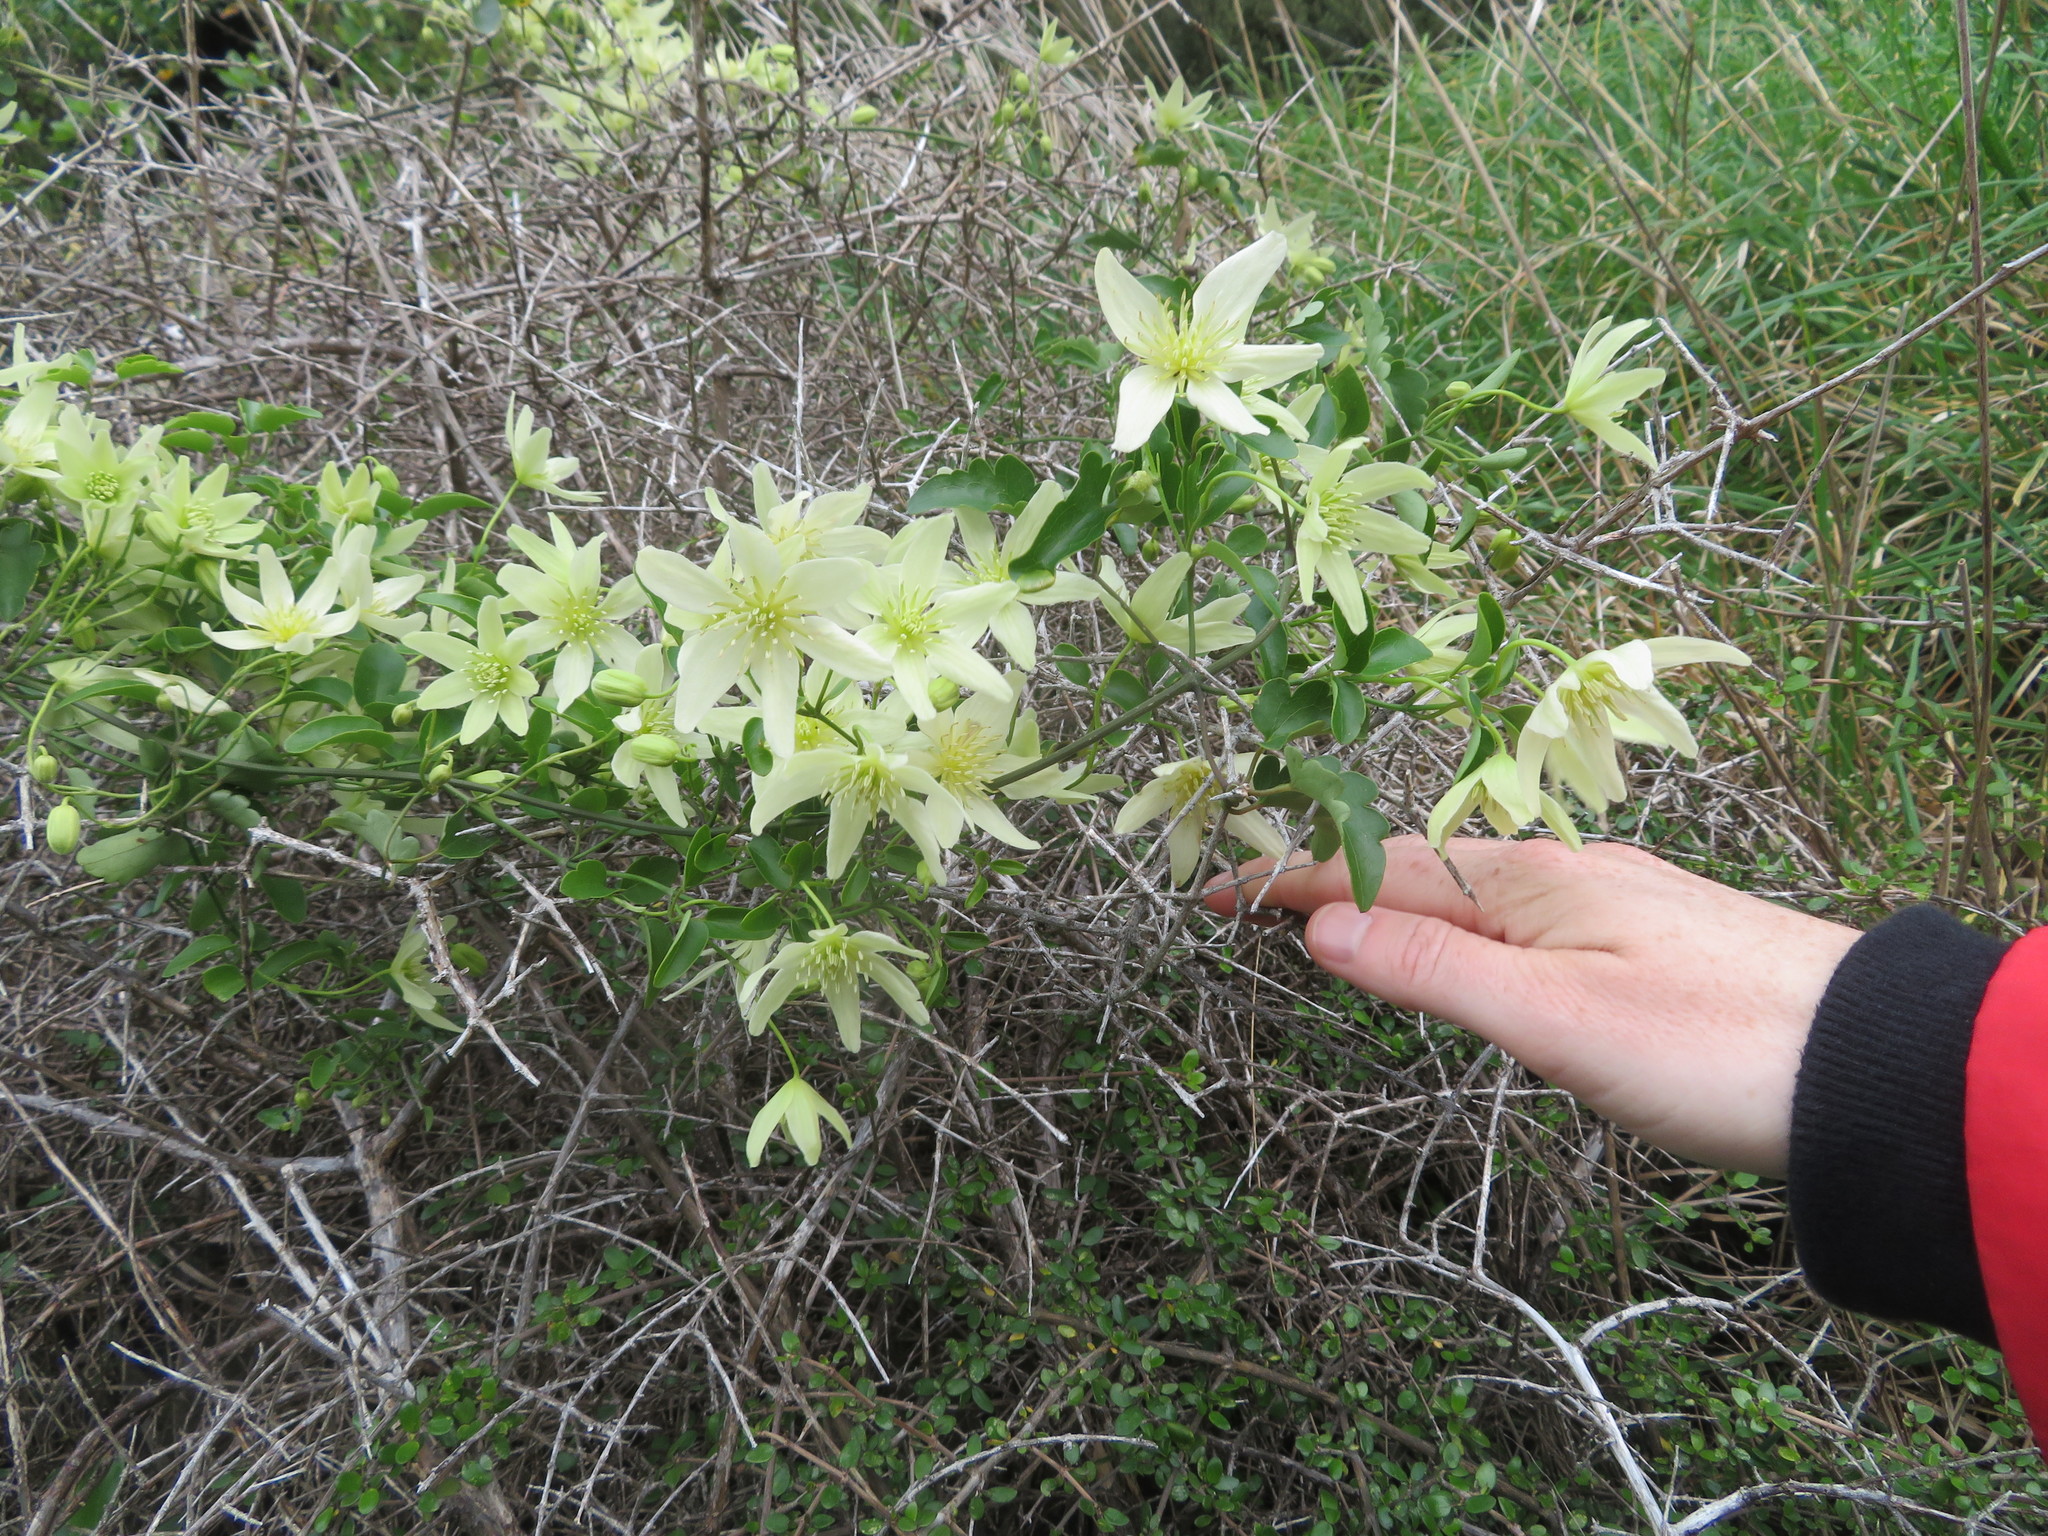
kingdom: Plantae
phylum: Tracheophyta
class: Magnoliopsida
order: Ranunculales
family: Ranunculaceae
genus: Clematis
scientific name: Clematis forsteri
